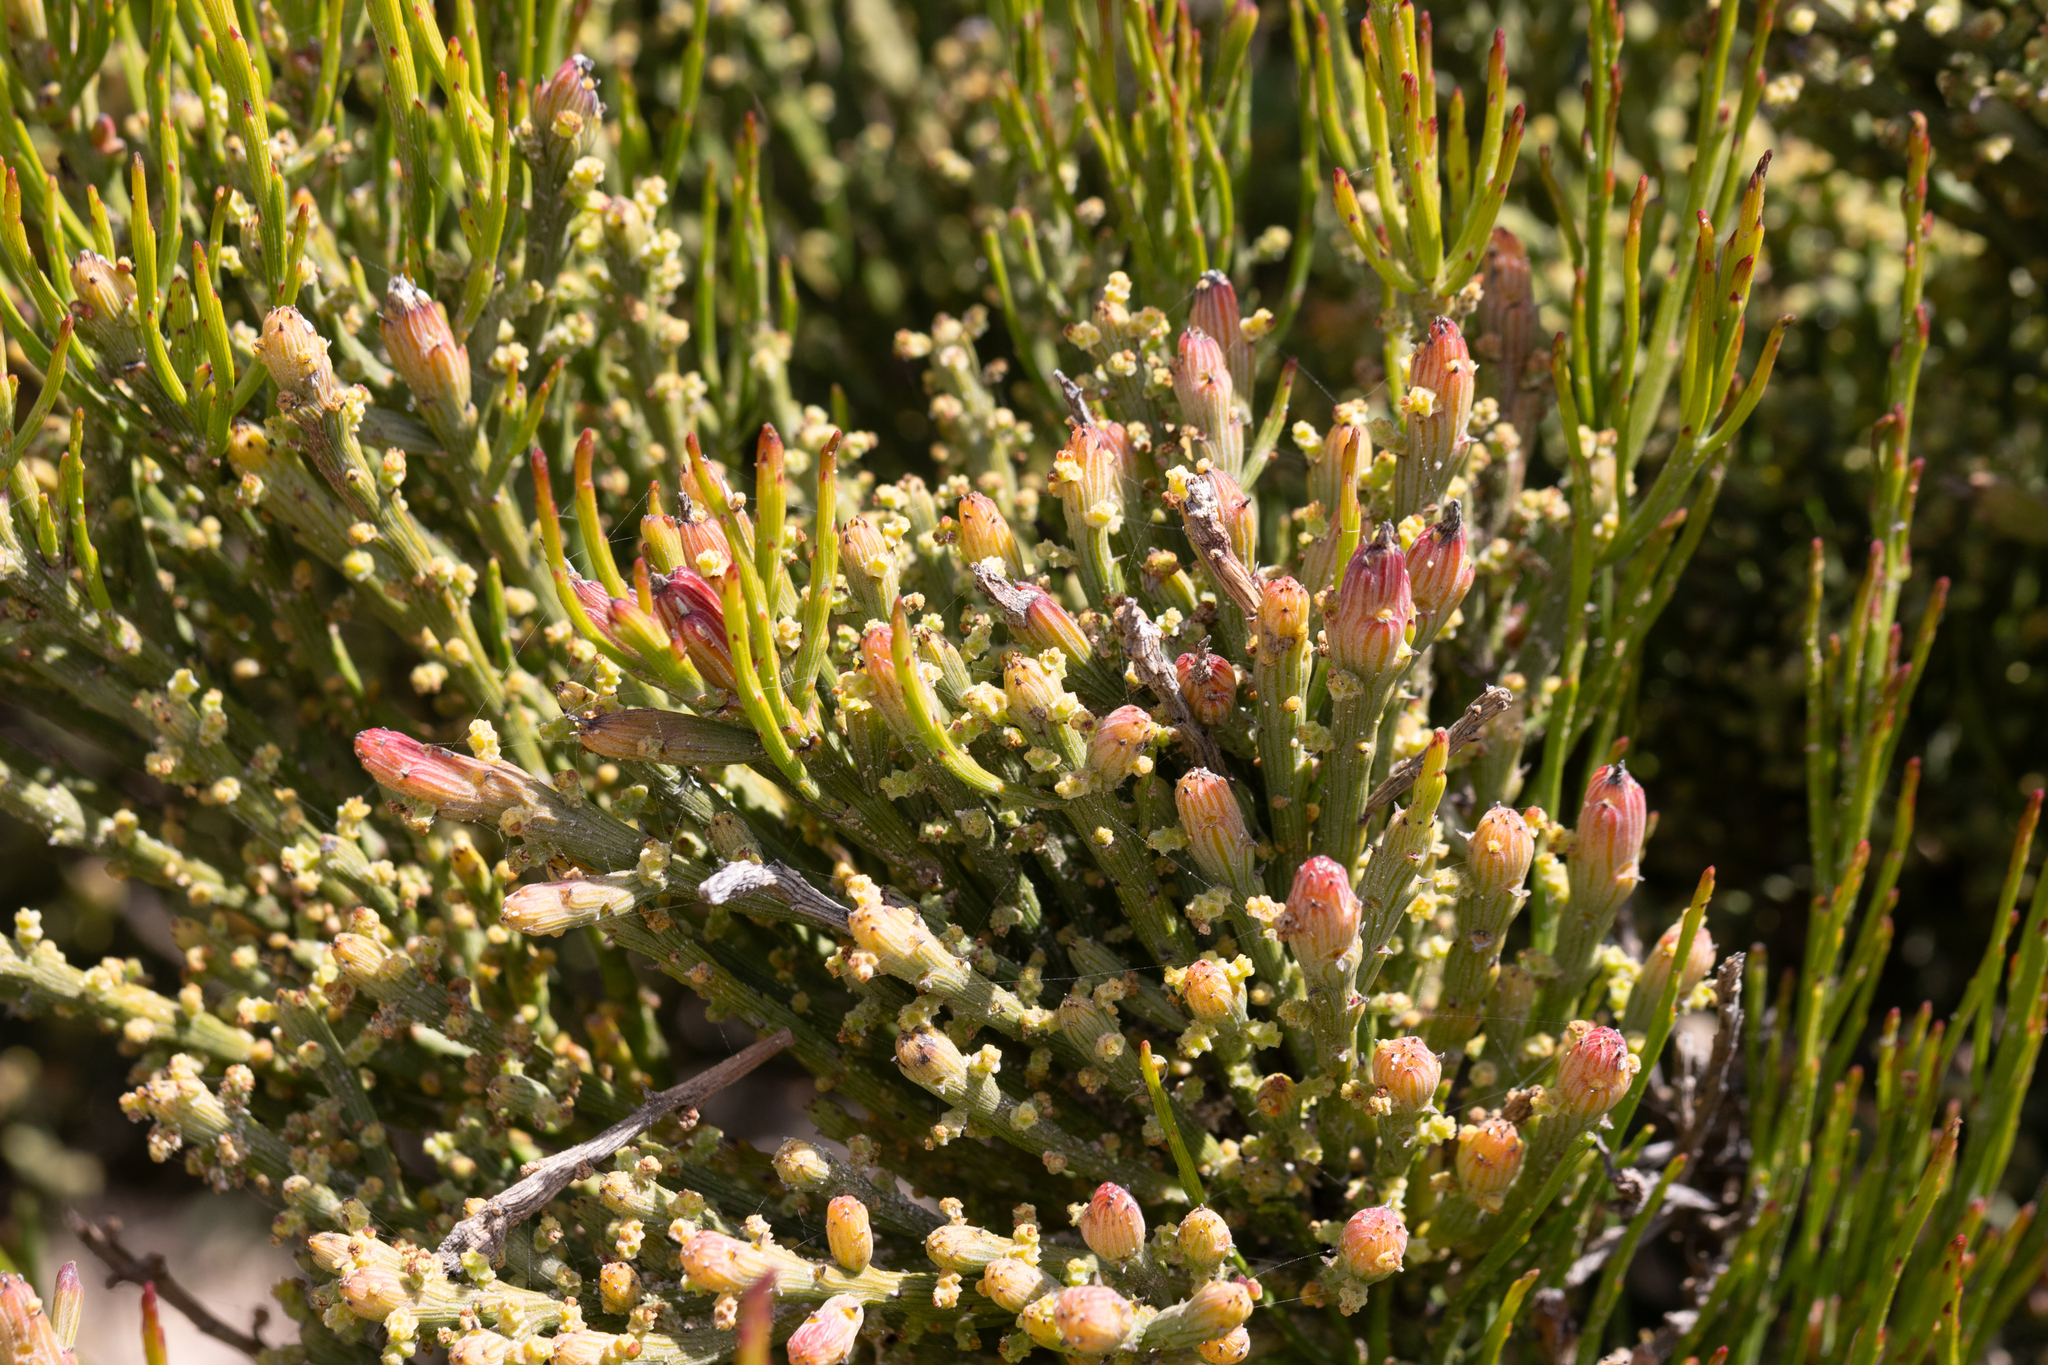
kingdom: Plantae
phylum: Tracheophyta
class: Magnoliopsida
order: Santalales
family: Santalaceae
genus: Exocarpos
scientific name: Exocarpos syrticola
